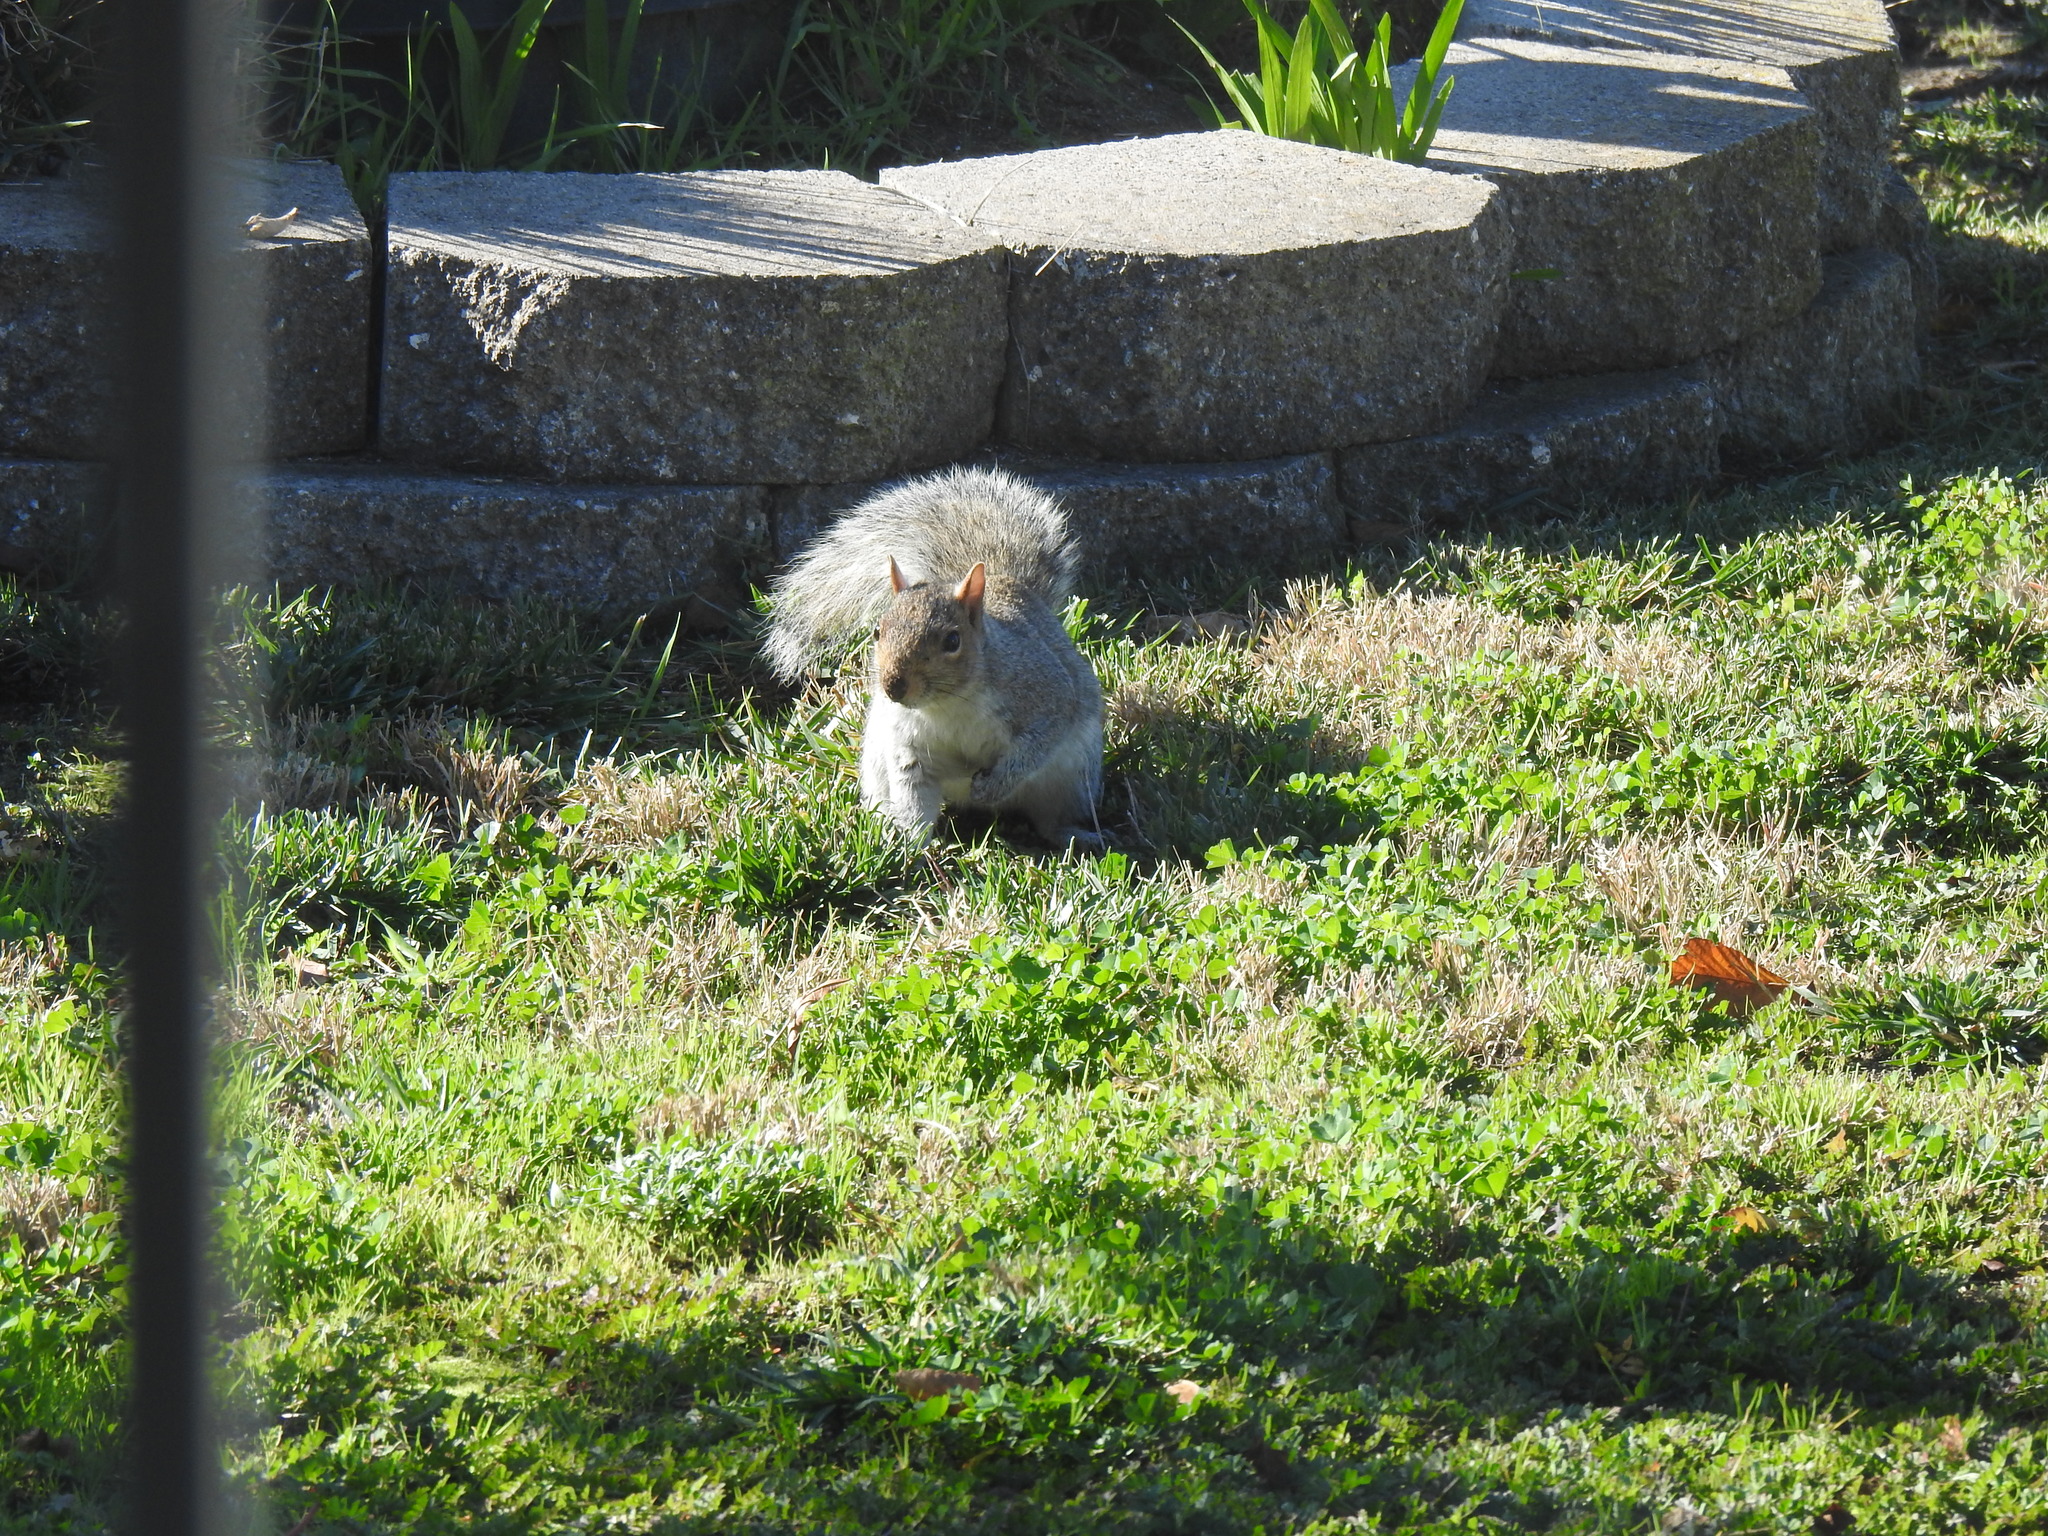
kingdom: Animalia
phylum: Chordata
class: Mammalia
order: Rodentia
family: Sciuridae
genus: Sciurus
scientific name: Sciurus carolinensis
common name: Eastern gray squirrel
